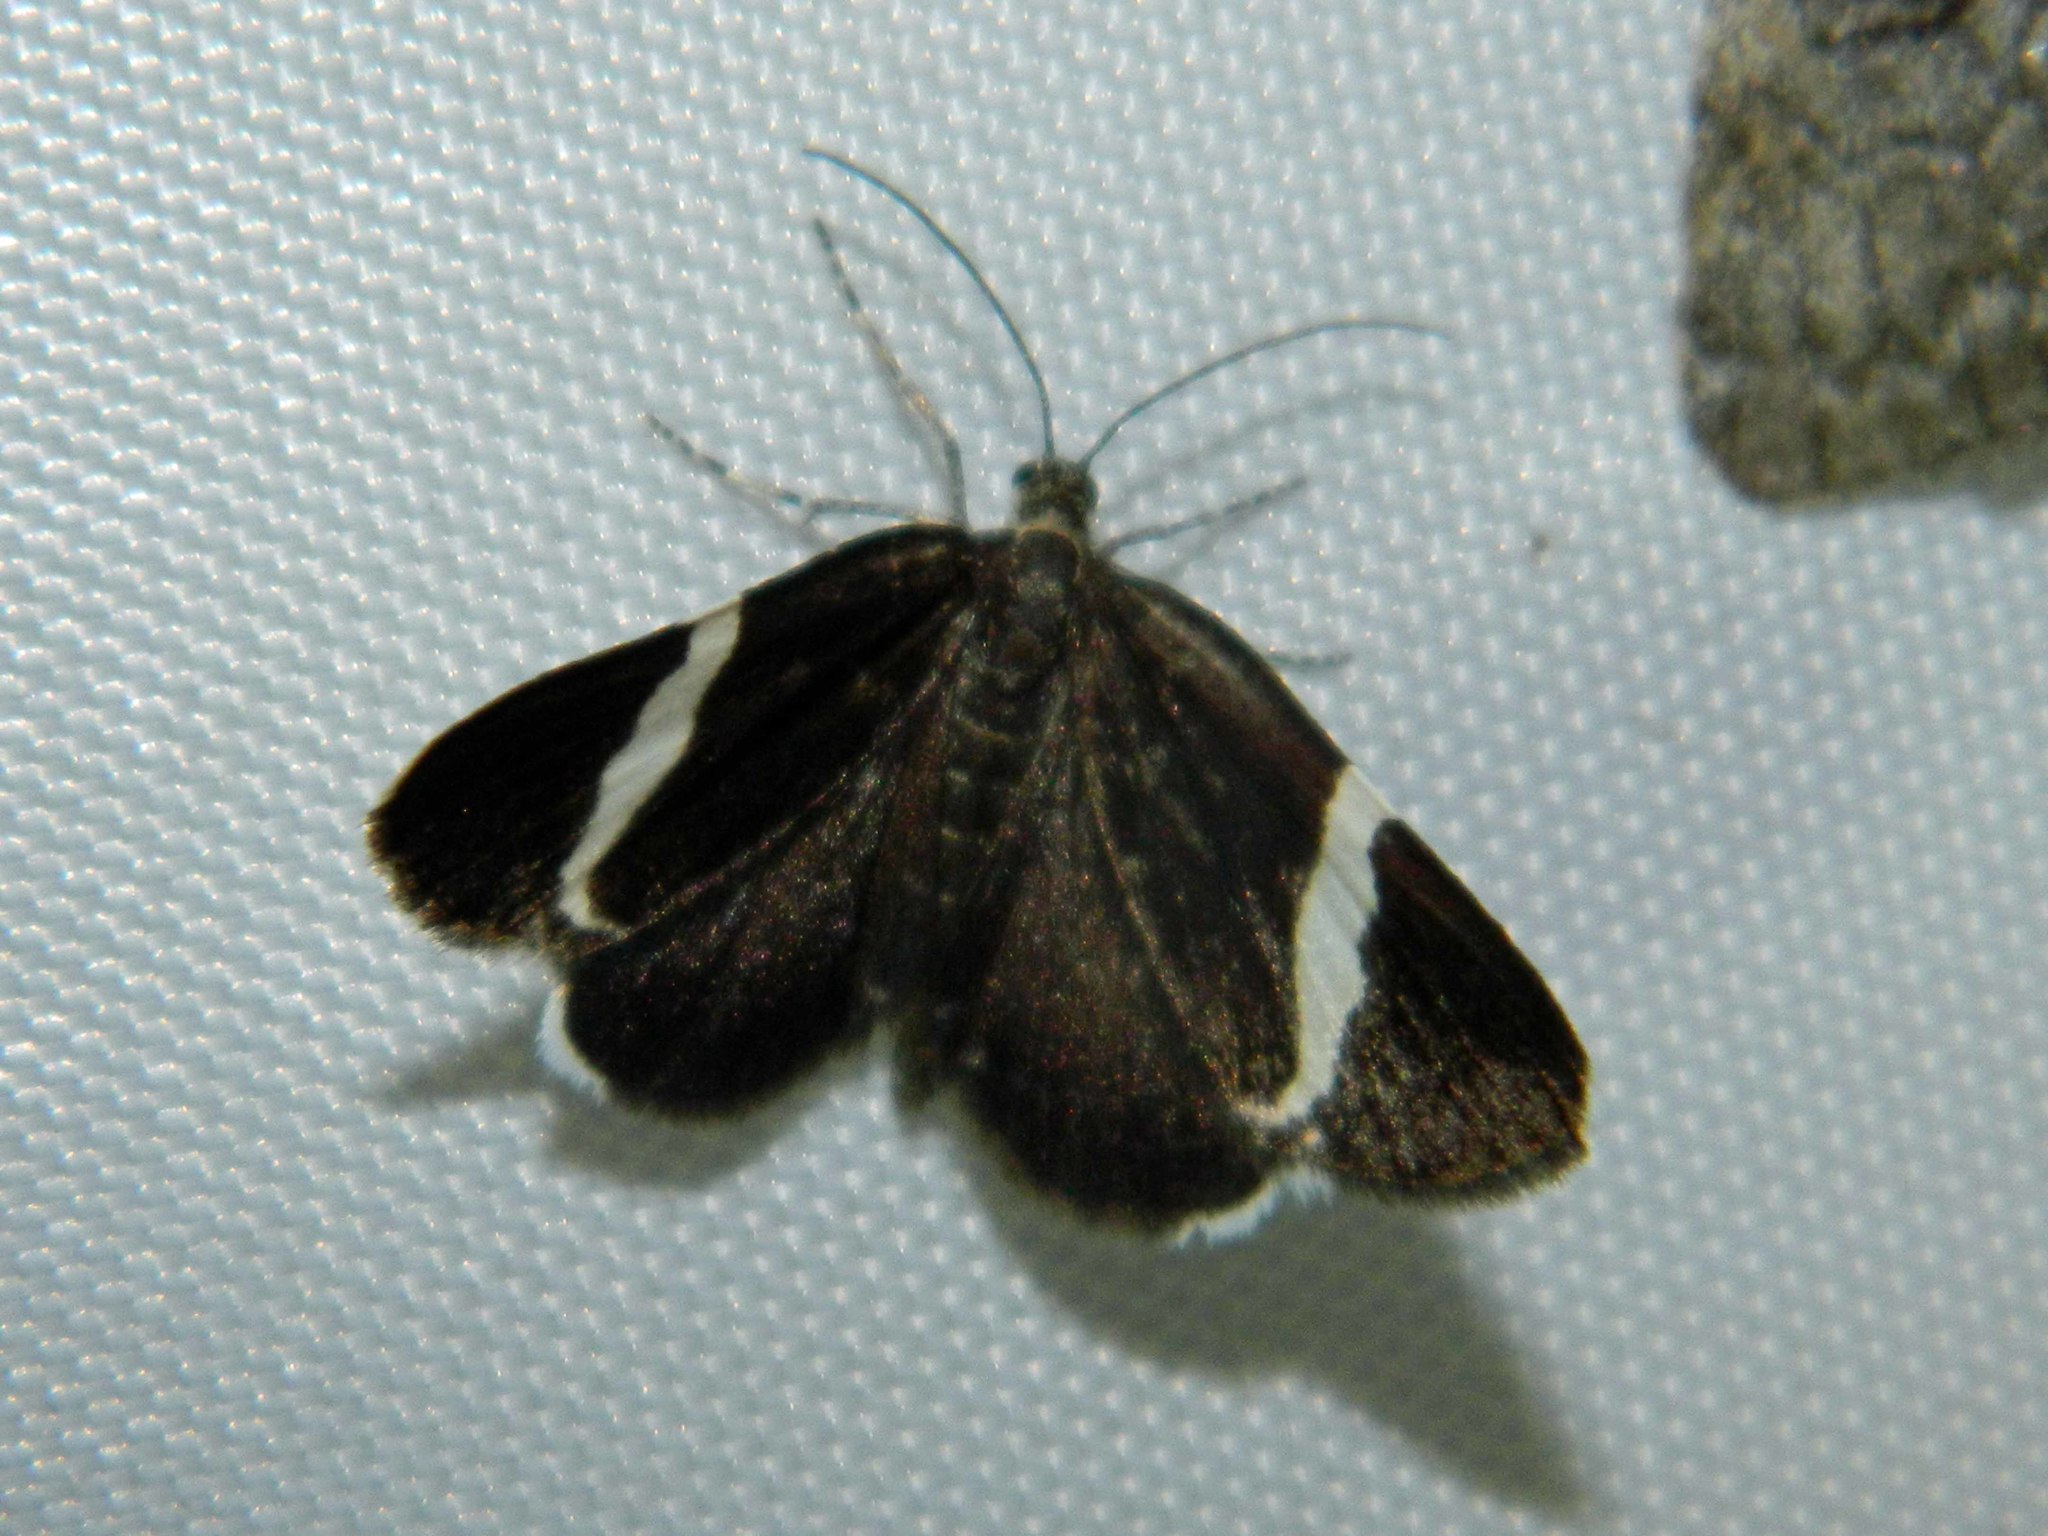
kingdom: Animalia
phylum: Arthropoda
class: Insecta
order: Lepidoptera
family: Geometridae
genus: Trichodezia
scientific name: Trichodezia albovittata
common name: White striped black
